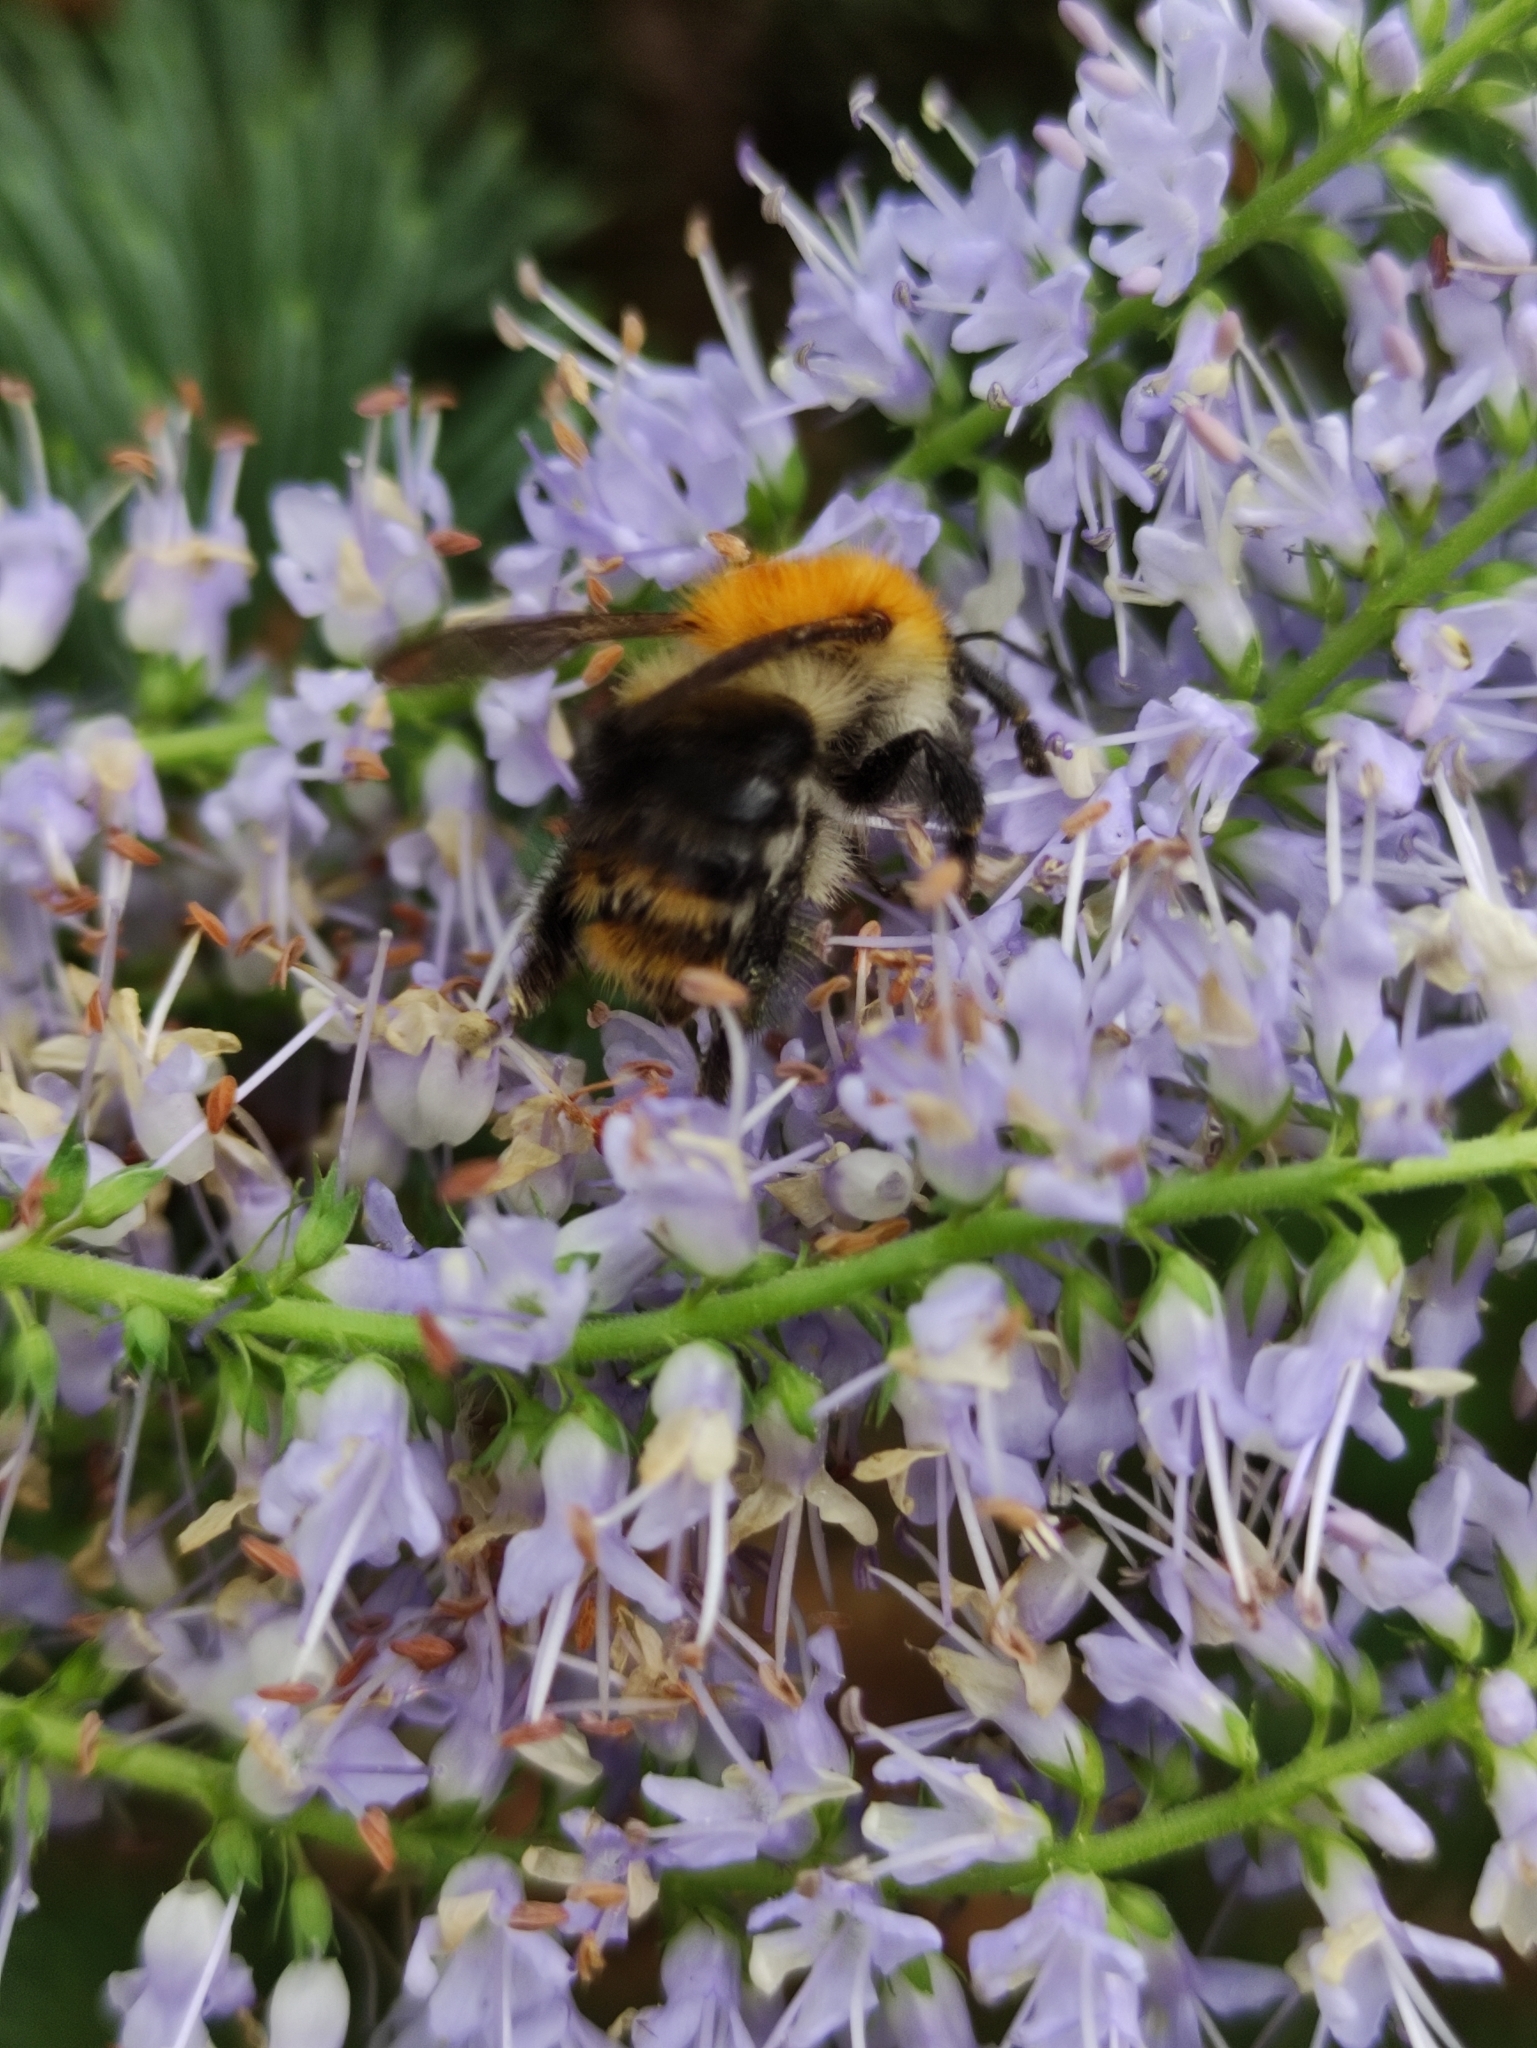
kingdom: Animalia
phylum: Arthropoda
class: Insecta
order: Hymenoptera
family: Apidae
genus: Bombus
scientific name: Bombus pascuorum
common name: Common carder bee
